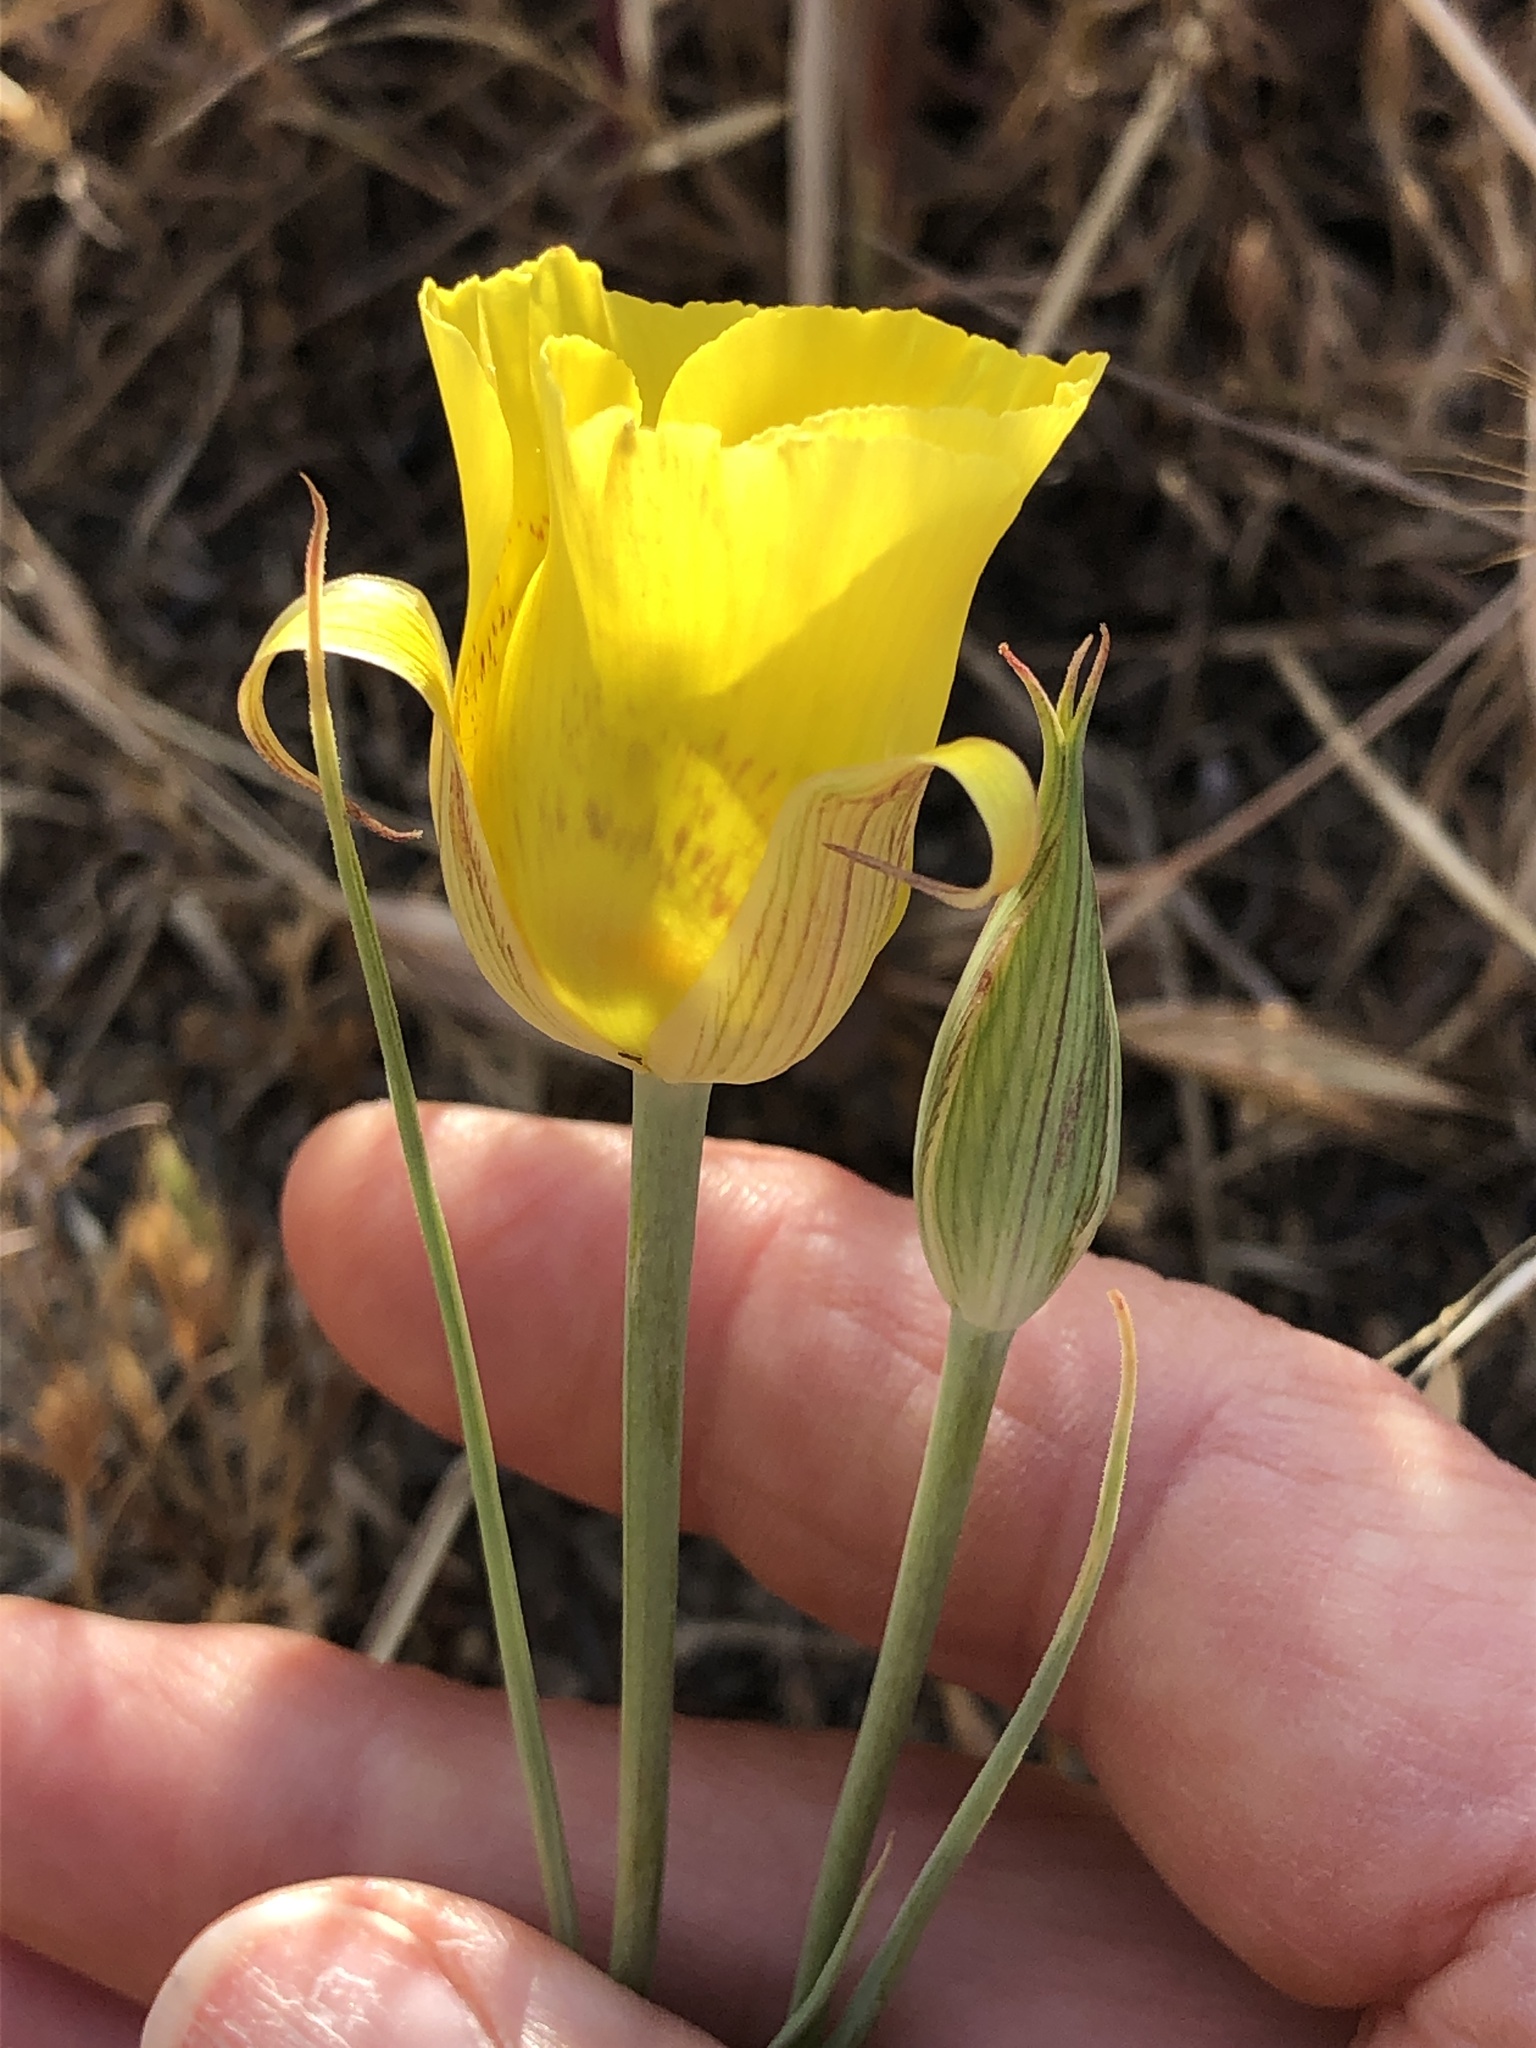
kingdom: Plantae
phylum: Tracheophyta
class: Liliopsida
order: Liliales
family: Liliaceae
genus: Calochortus
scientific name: Calochortus luteus
